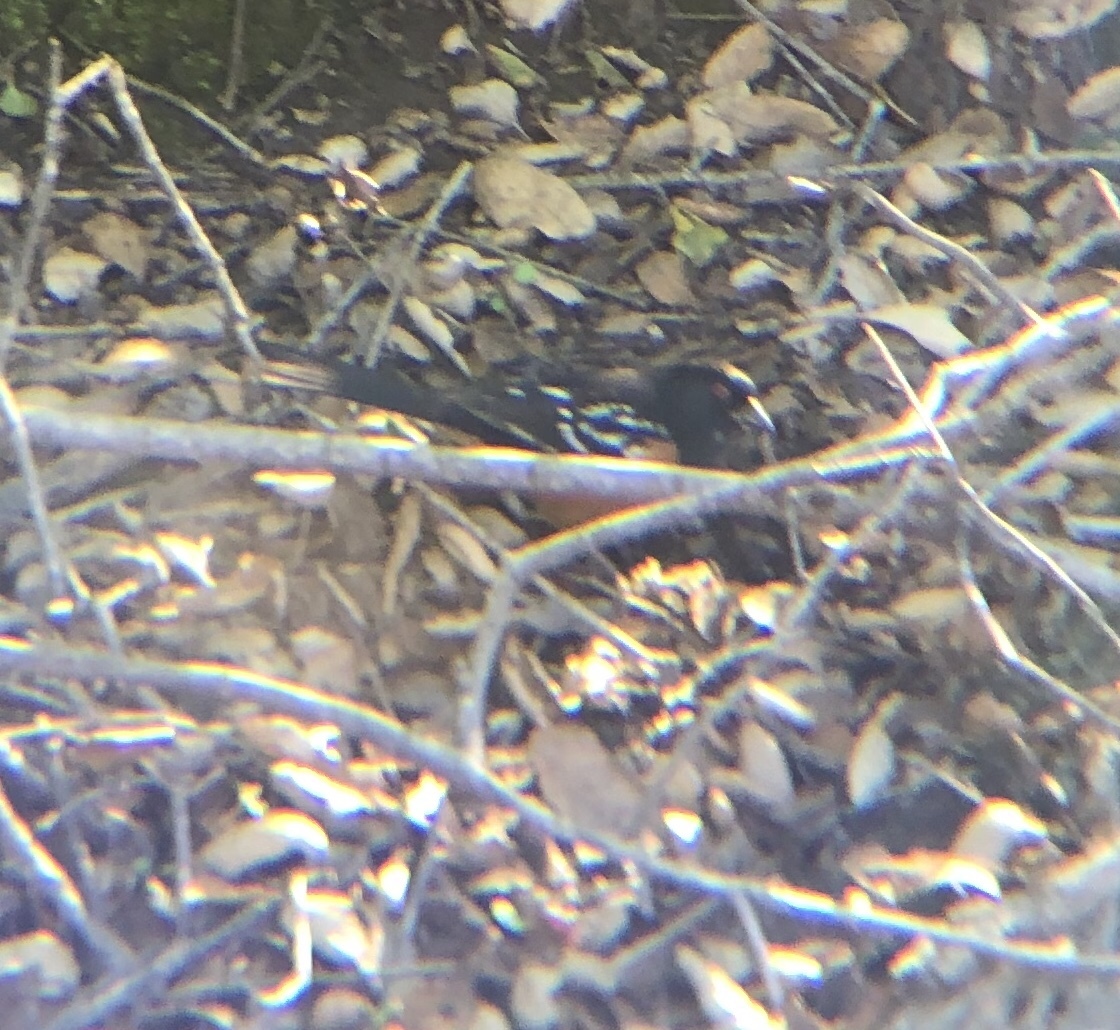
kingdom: Animalia
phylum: Chordata
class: Aves
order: Passeriformes
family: Passerellidae
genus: Pipilo
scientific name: Pipilo maculatus
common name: Spotted towhee
